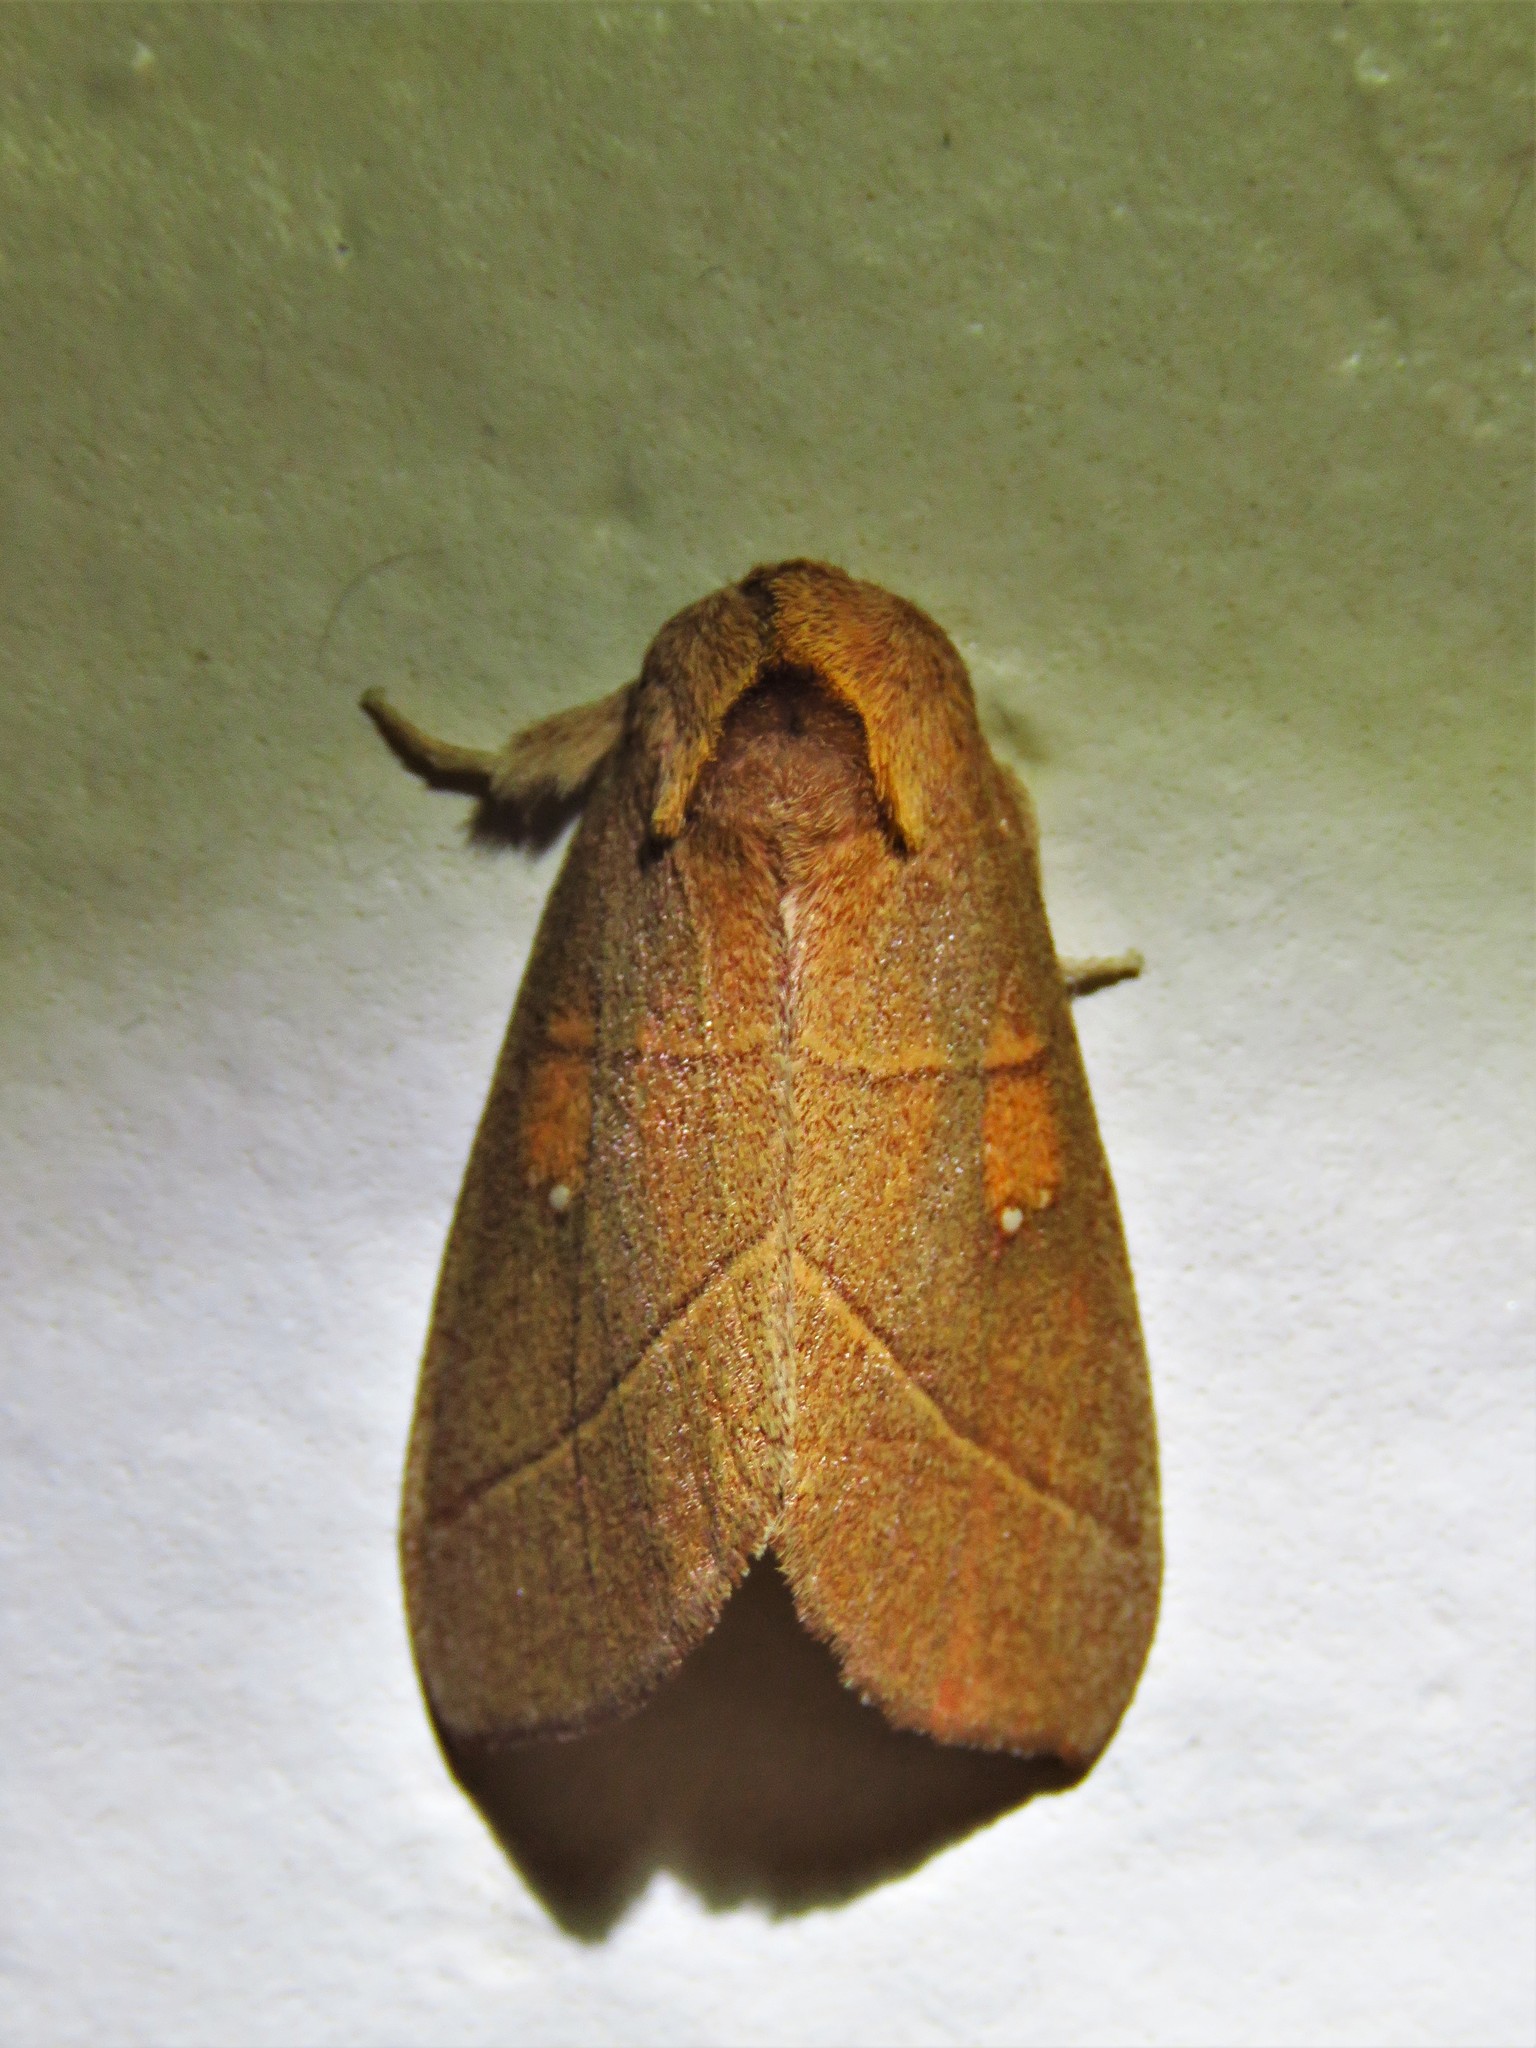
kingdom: Animalia
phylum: Arthropoda
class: Insecta
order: Lepidoptera
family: Notodontidae
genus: Nadata
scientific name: Nadata gibbosa
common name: White-dotted prominent
